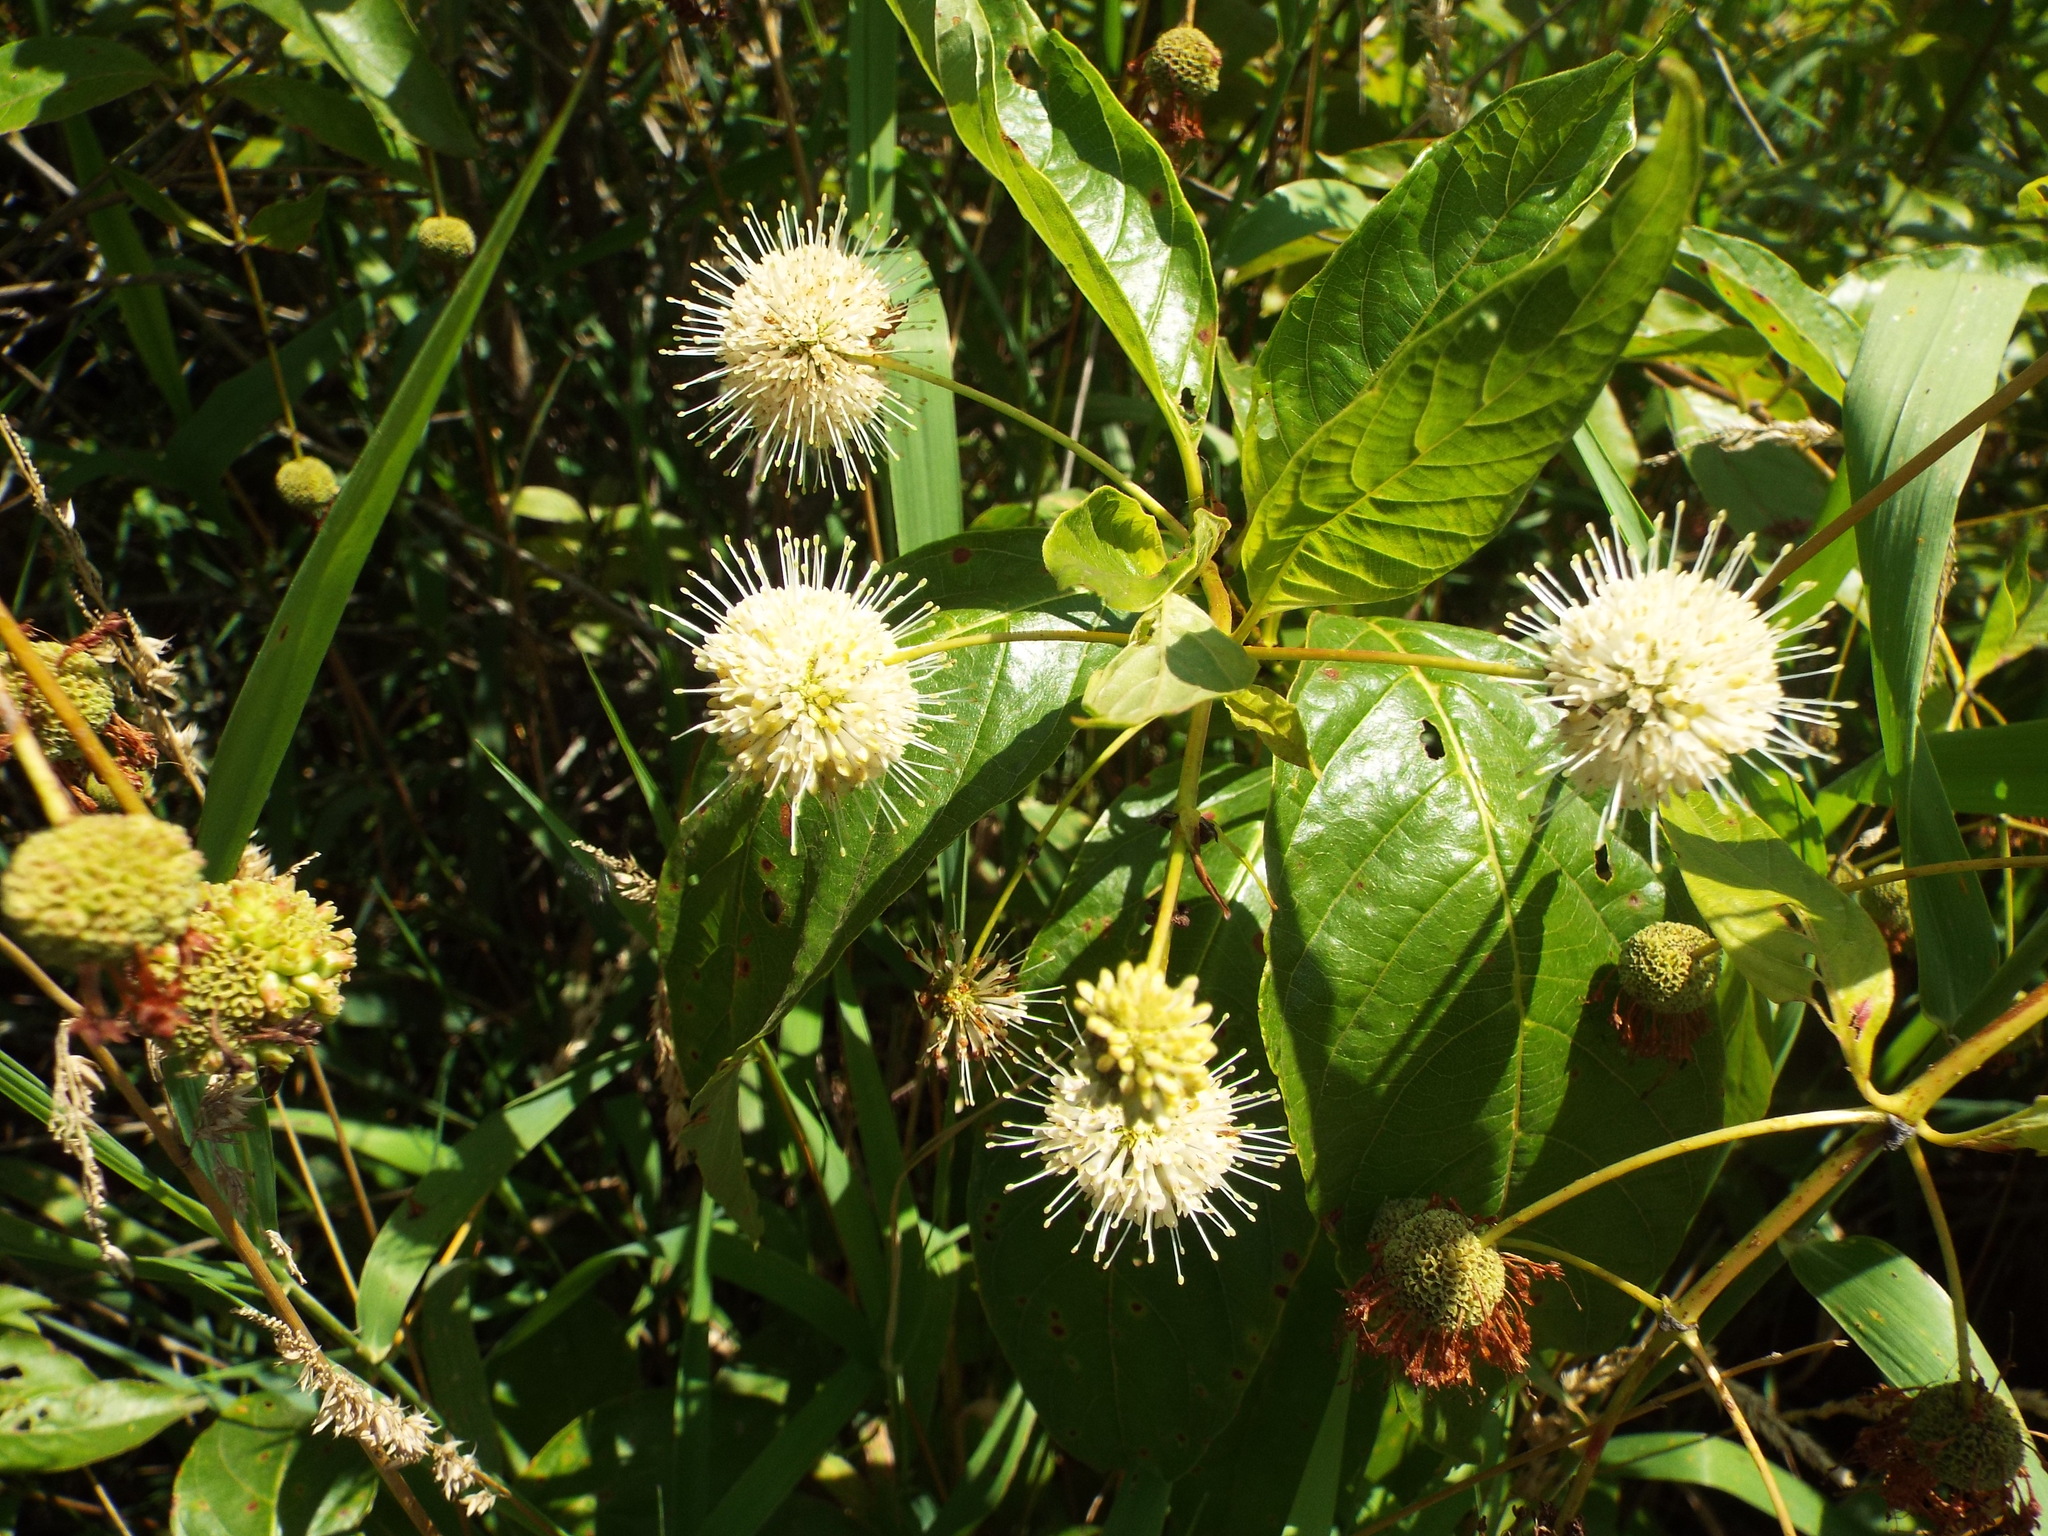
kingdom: Plantae
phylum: Tracheophyta
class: Magnoliopsida
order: Gentianales
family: Rubiaceae
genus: Cephalanthus
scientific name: Cephalanthus occidentalis
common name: Button-willow
